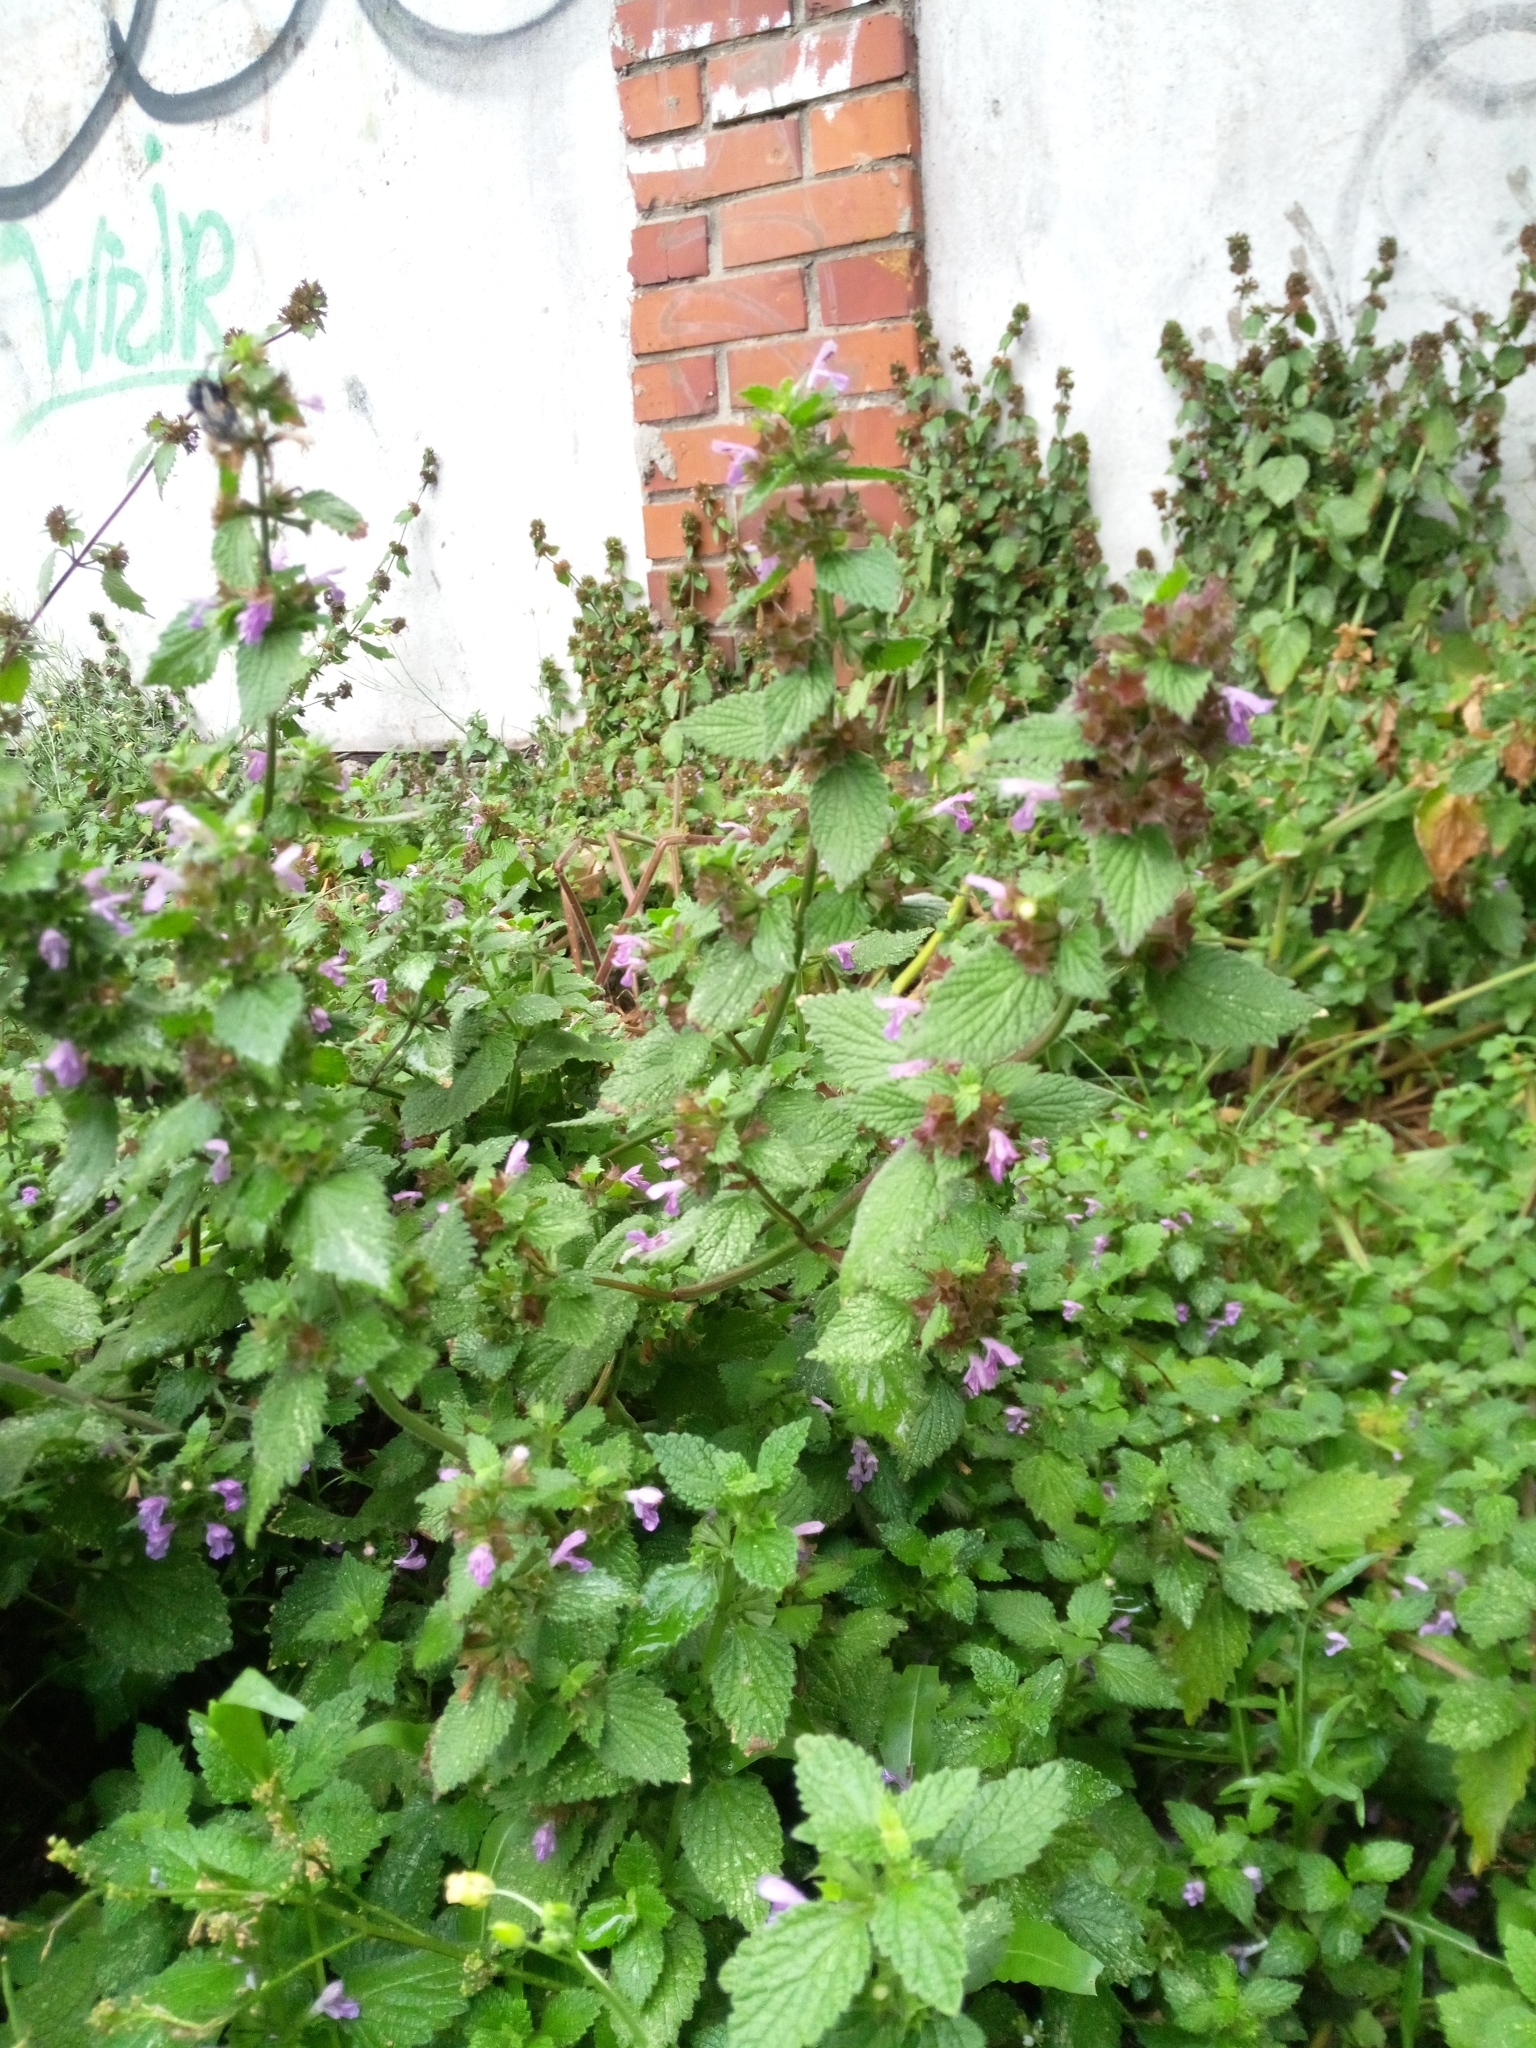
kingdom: Plantae
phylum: Tracheophyta
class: Magnoliopsida
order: Lamiales
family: Lamiaceae
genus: Ballota
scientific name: Ballota nigra
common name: Black horehound
